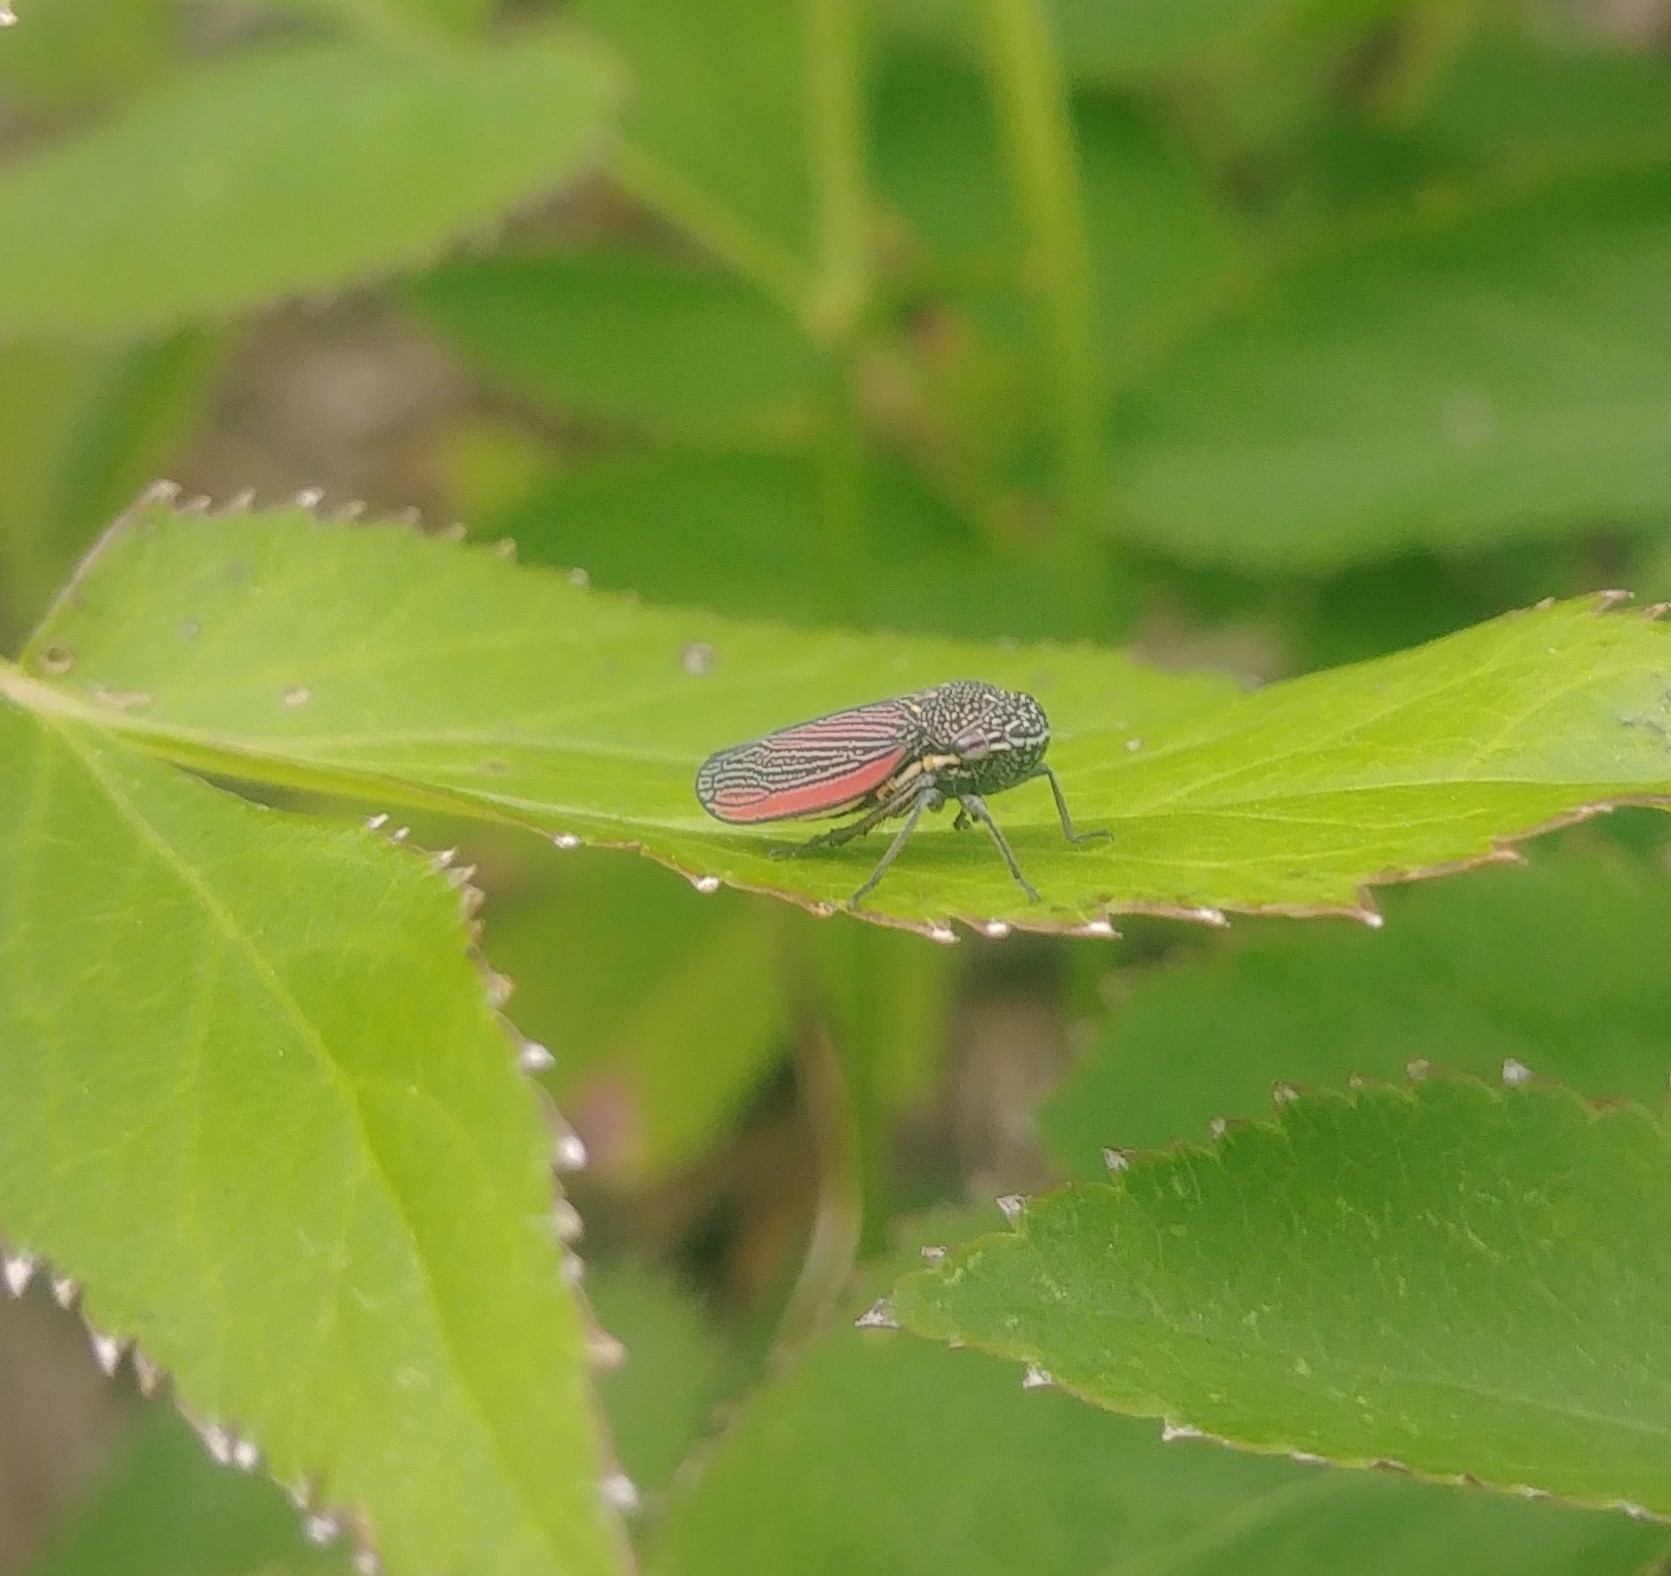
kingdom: Animalia
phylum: Arthropoda
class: Insecta
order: Hemiptera
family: Cicadellidae
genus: Cuerna
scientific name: Cuerna striata
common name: Striped leafhopper
